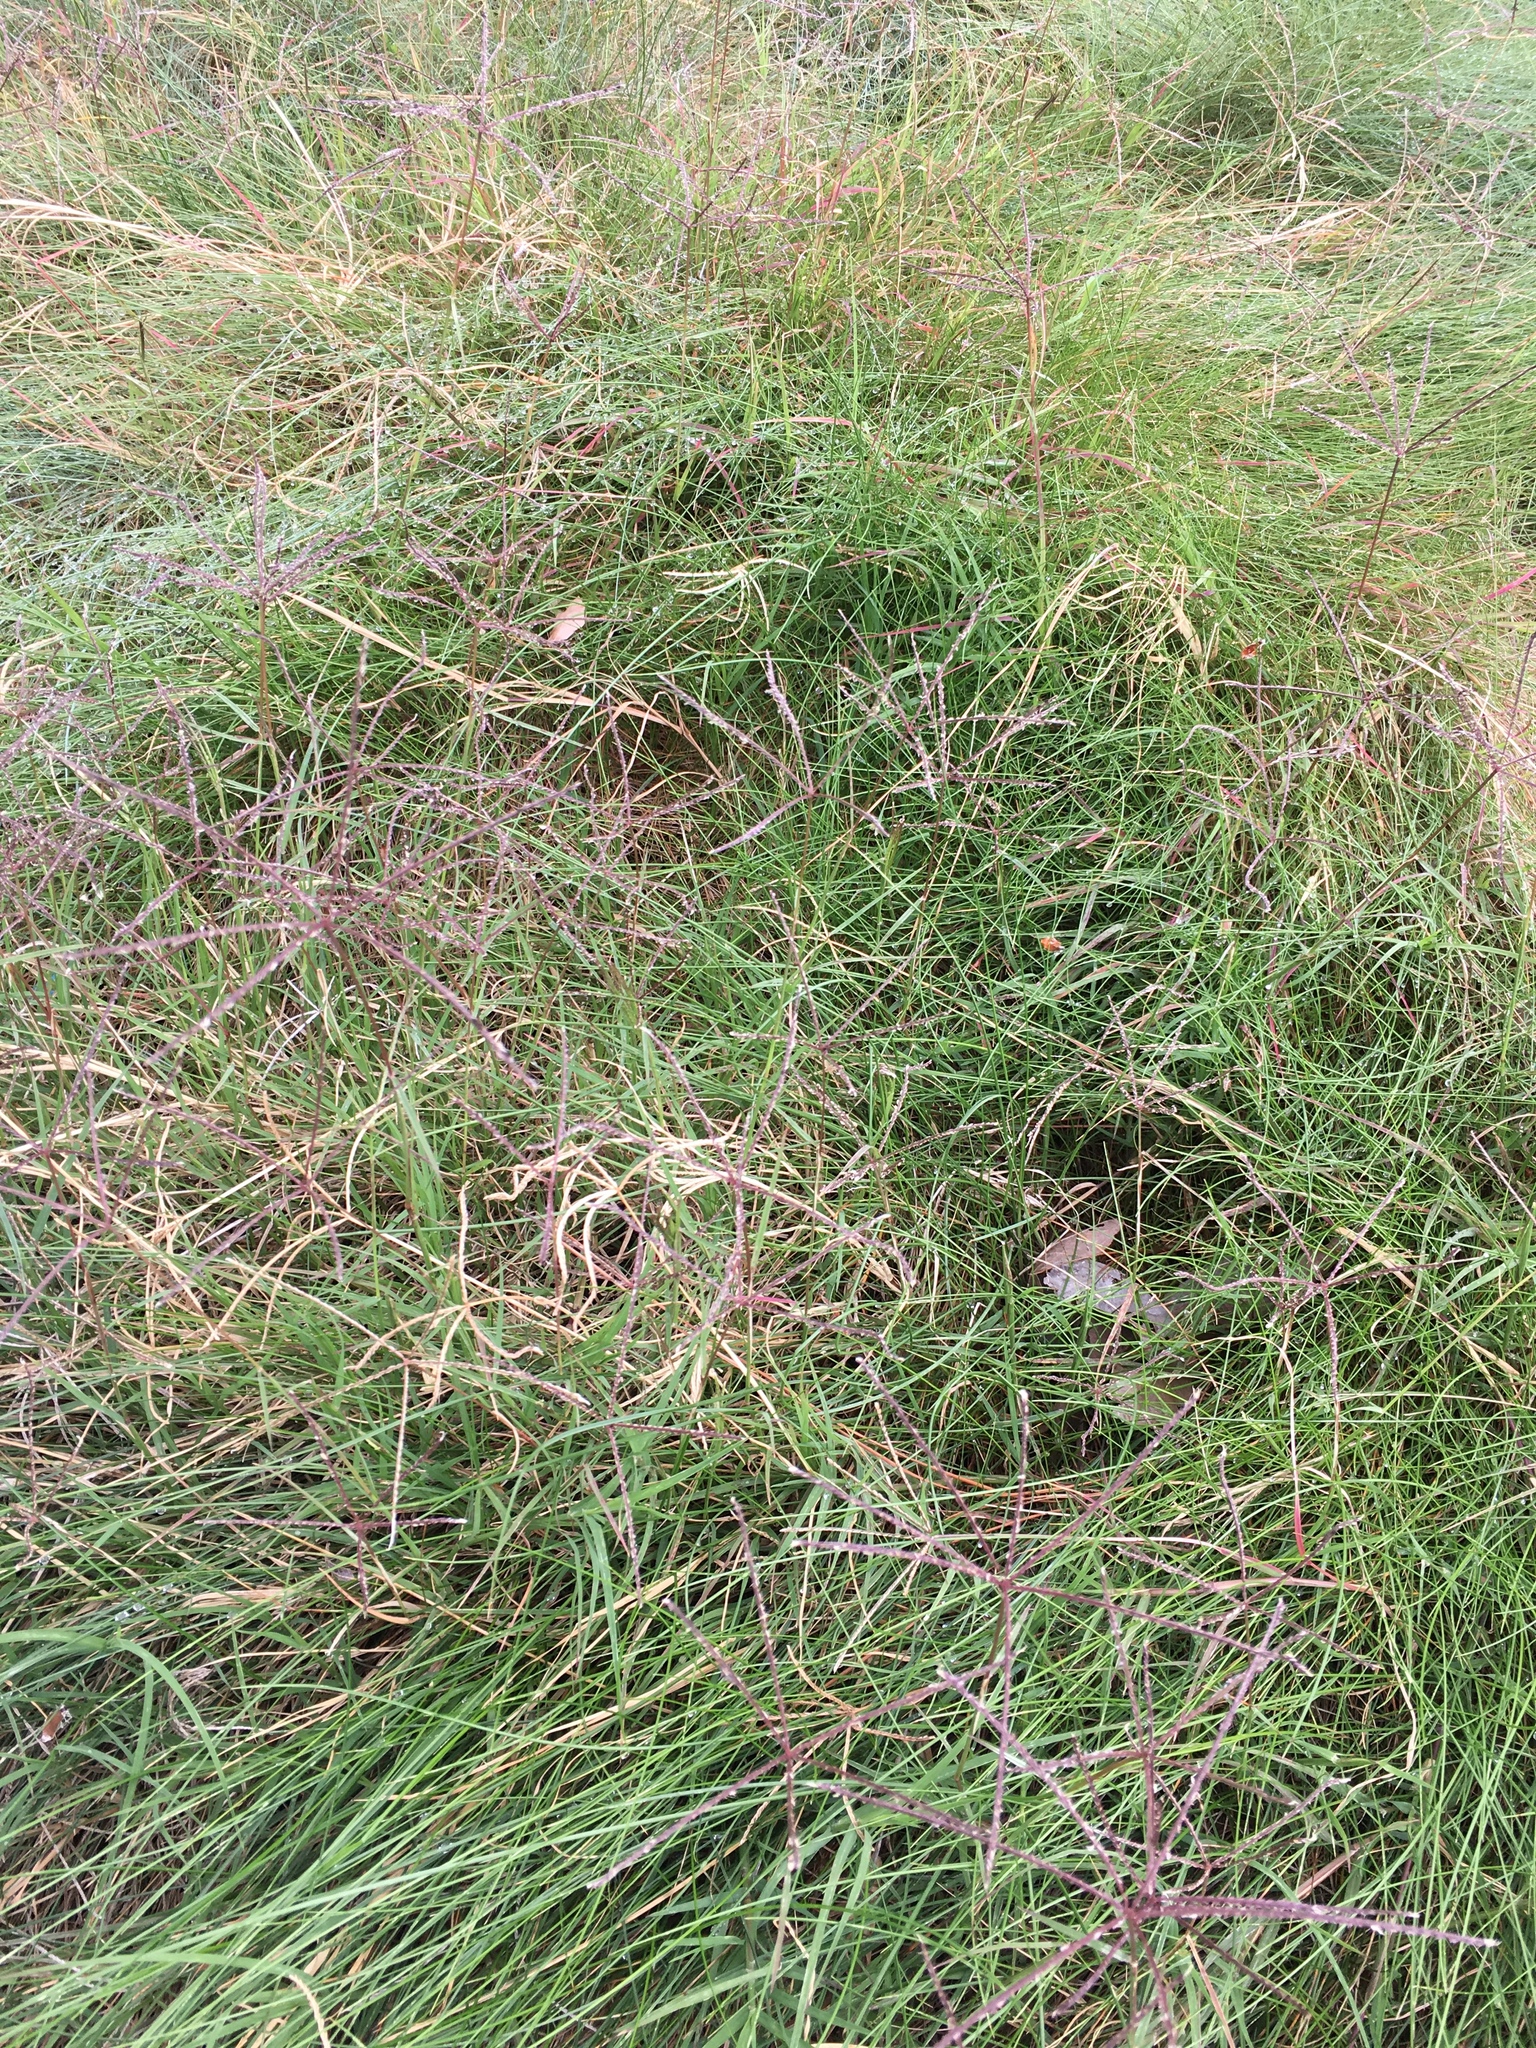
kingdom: Plantae
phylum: Tracheophyta
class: Liliopsida
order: Poales
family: Poaceae
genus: Cynodon
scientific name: Cynodon dactylon
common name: Bermuda grass
